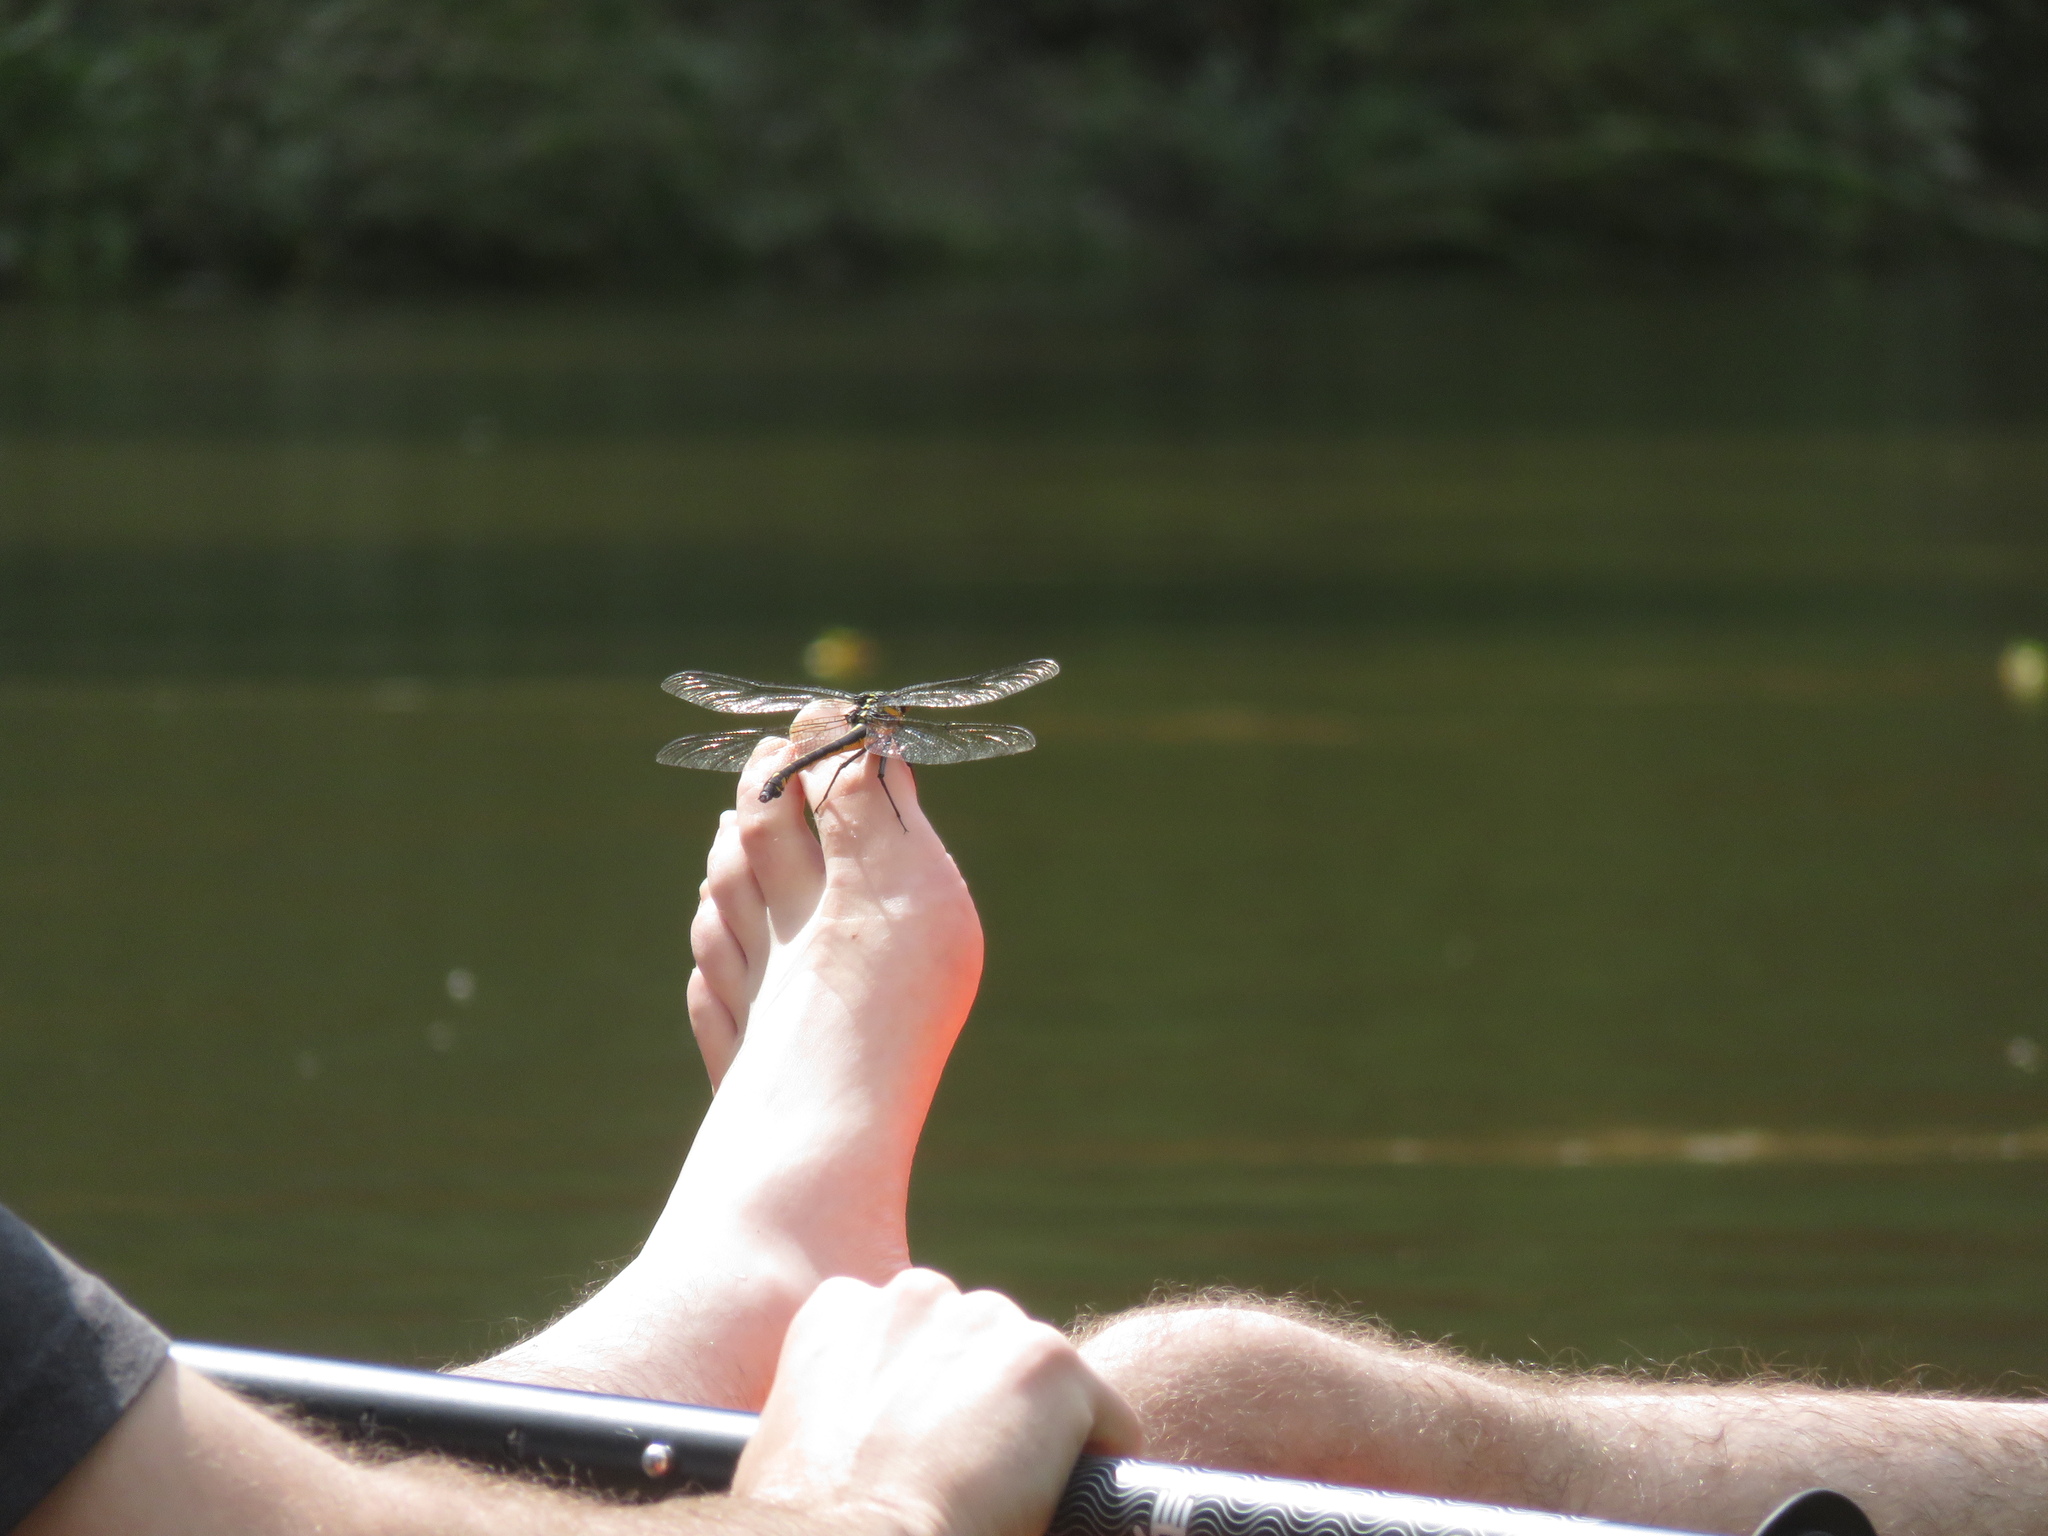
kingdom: Animalia
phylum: Arthropoda
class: Insecta
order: Odonata
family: Gomphidae
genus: Hagenius
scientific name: Hagenius brevistylus
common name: Dragonhunter
